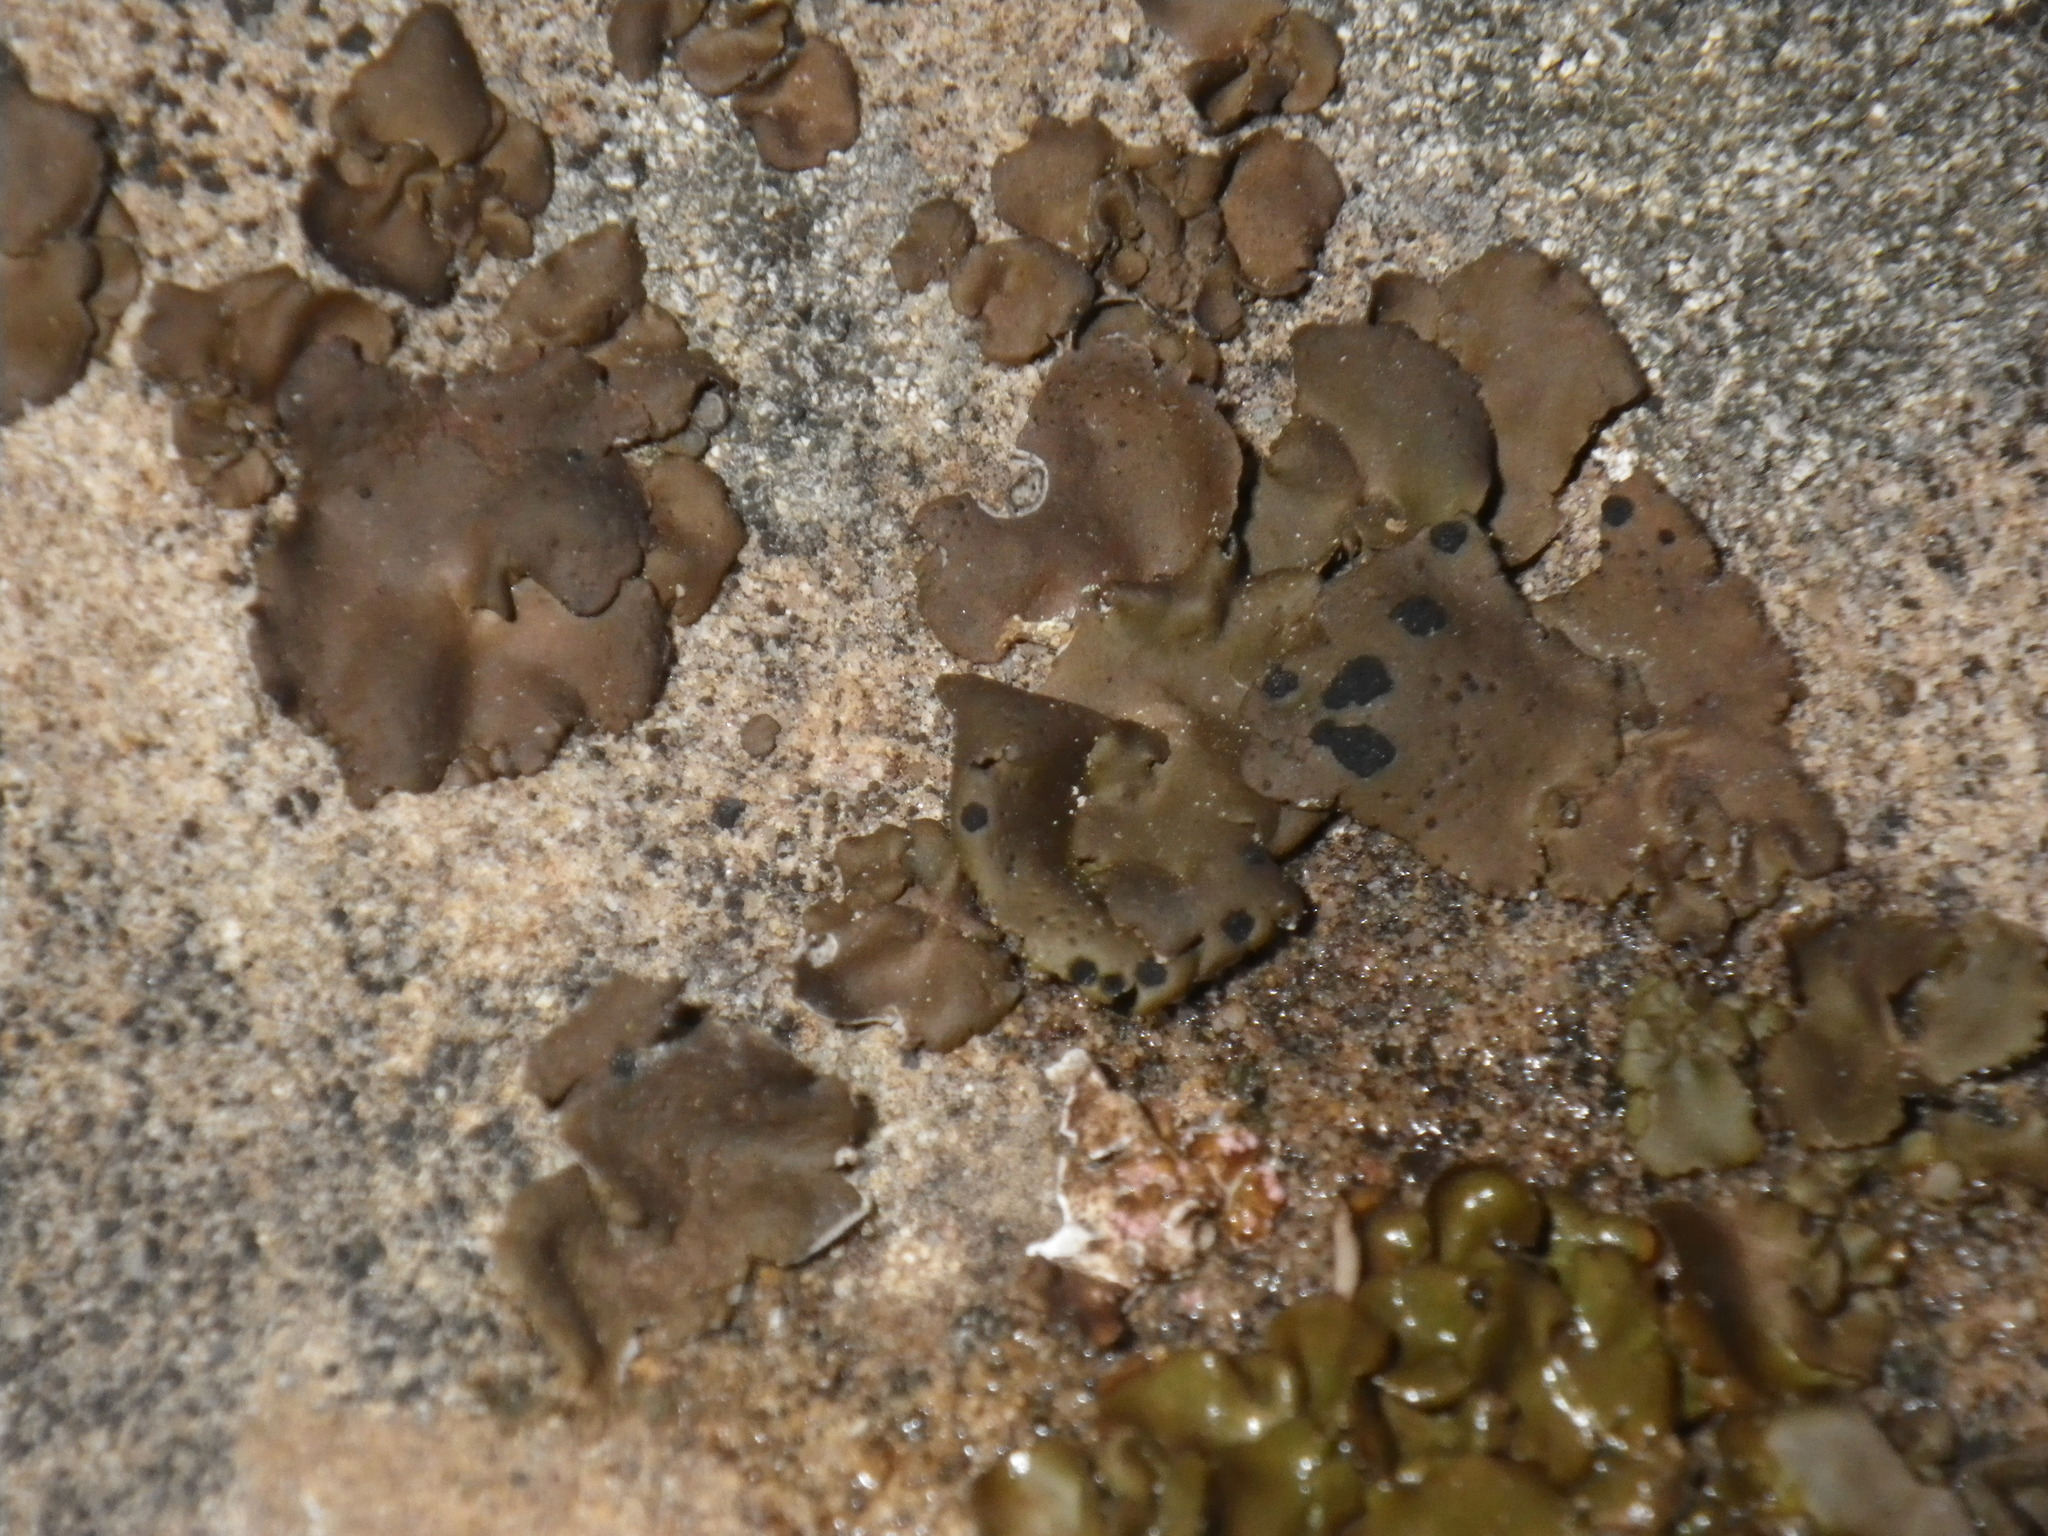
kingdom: Fungi
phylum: Ascomycota
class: Lecanoromycetes
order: Umbilicariales
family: Umbilicariaceae
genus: Umbilicaria
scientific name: Umbilicaria phaea
